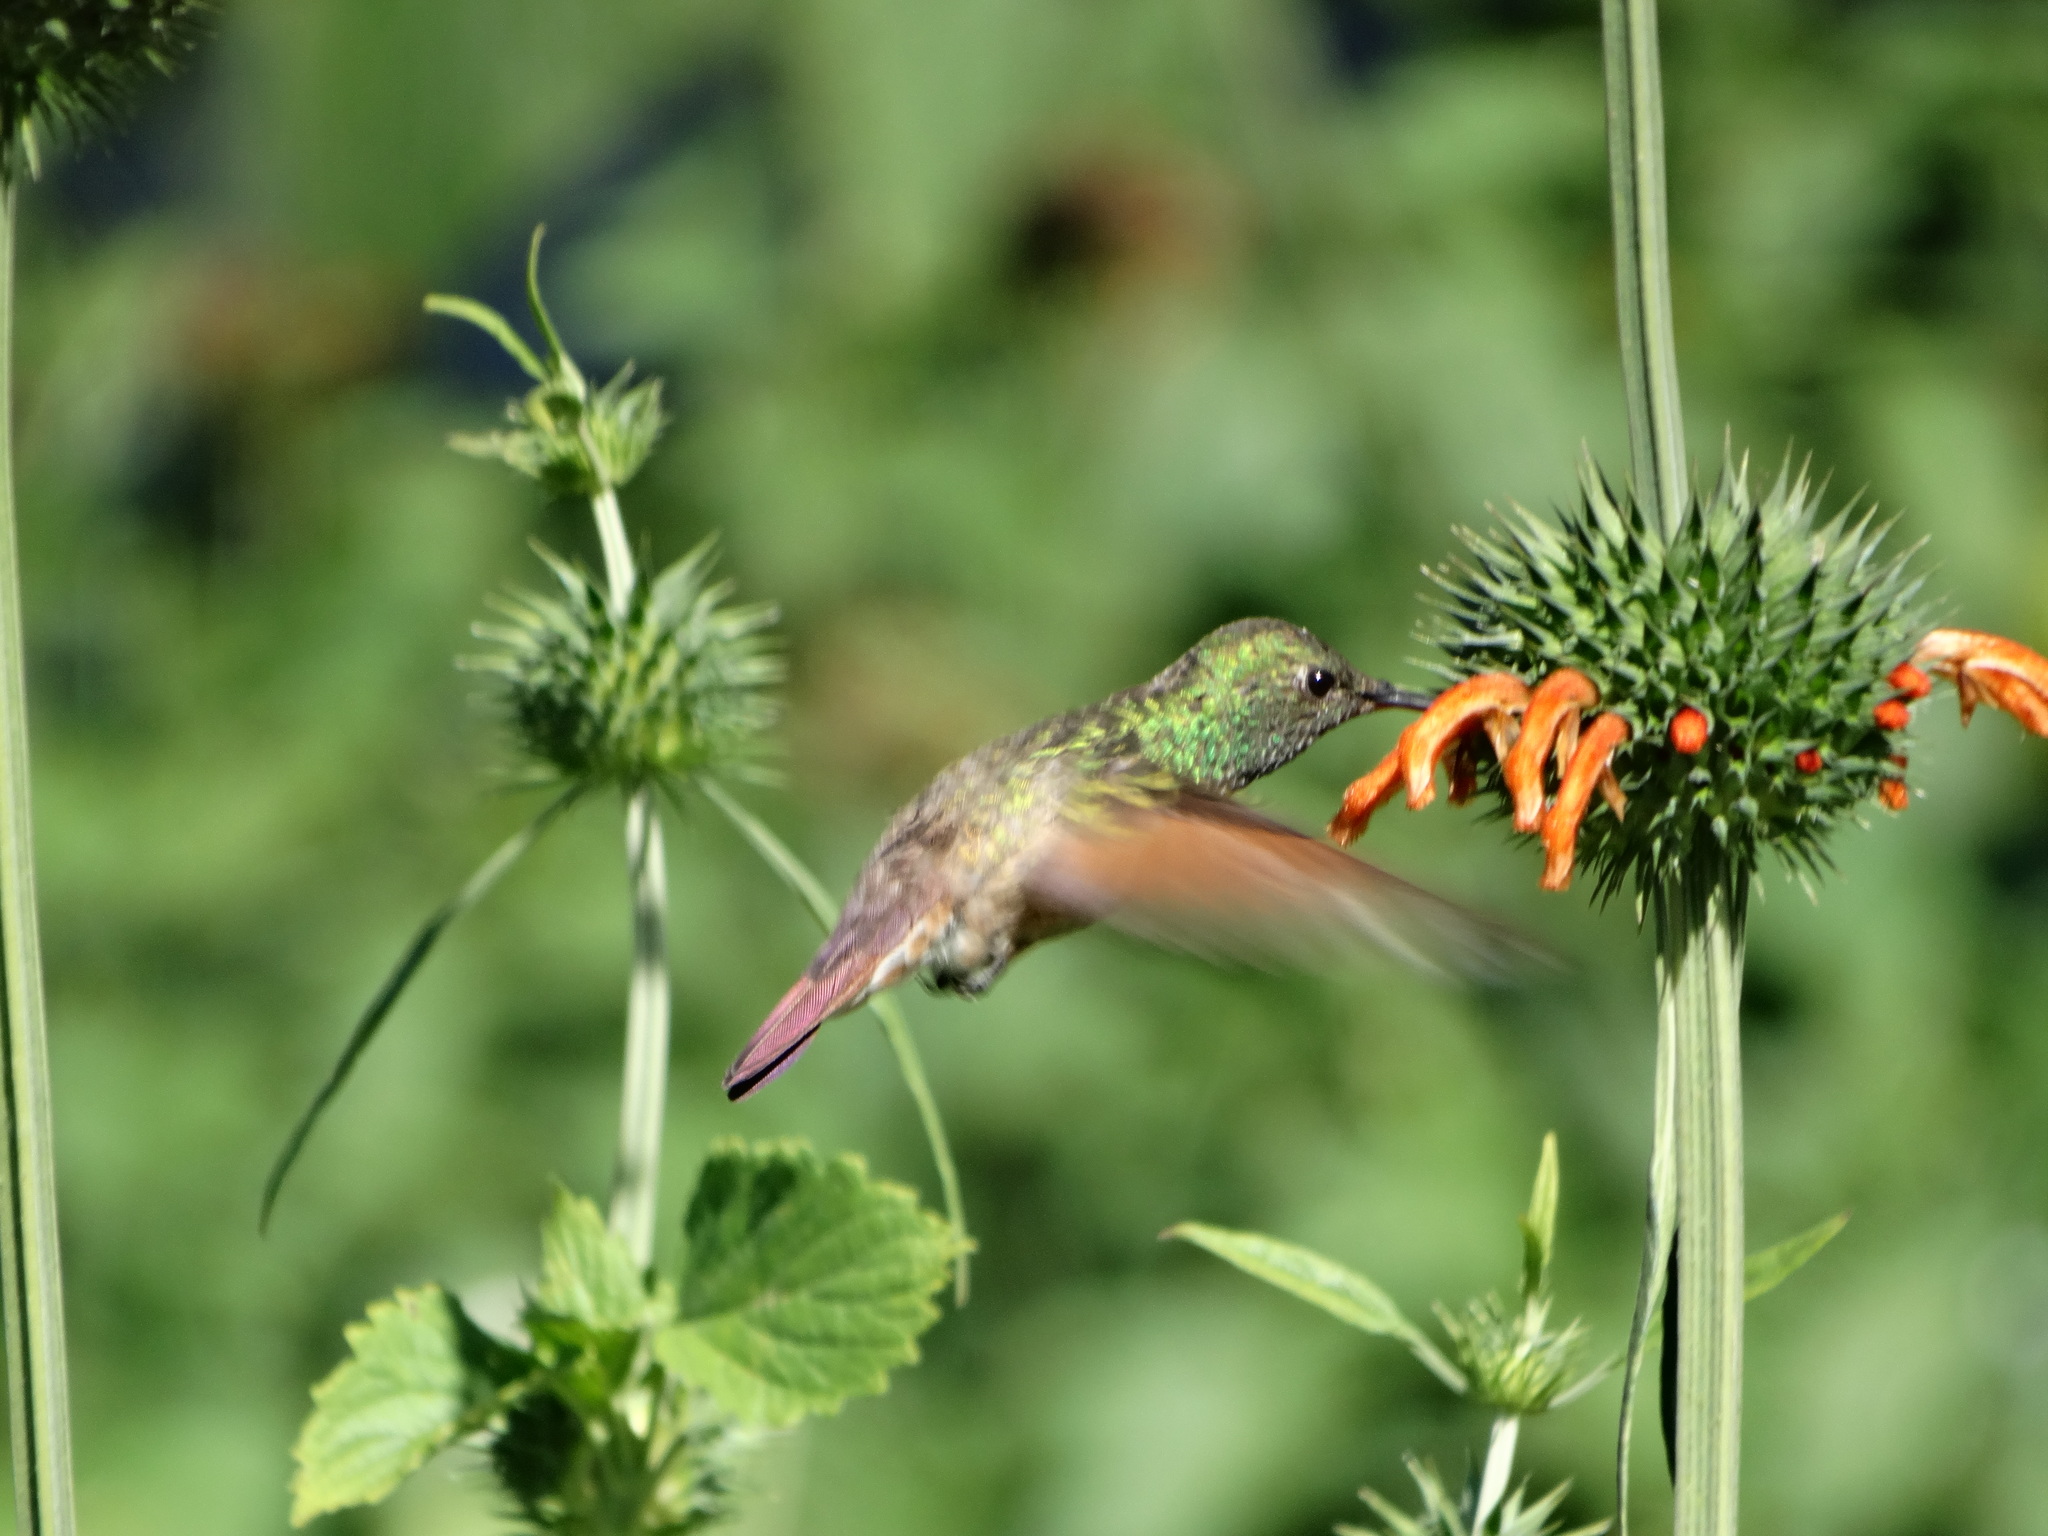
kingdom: Animalia
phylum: Chordata
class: Aves
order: Apodiformes
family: Trochilidae
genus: Saucerottia
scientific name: Saucerottia beryllina
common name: Berylline hummingbird
